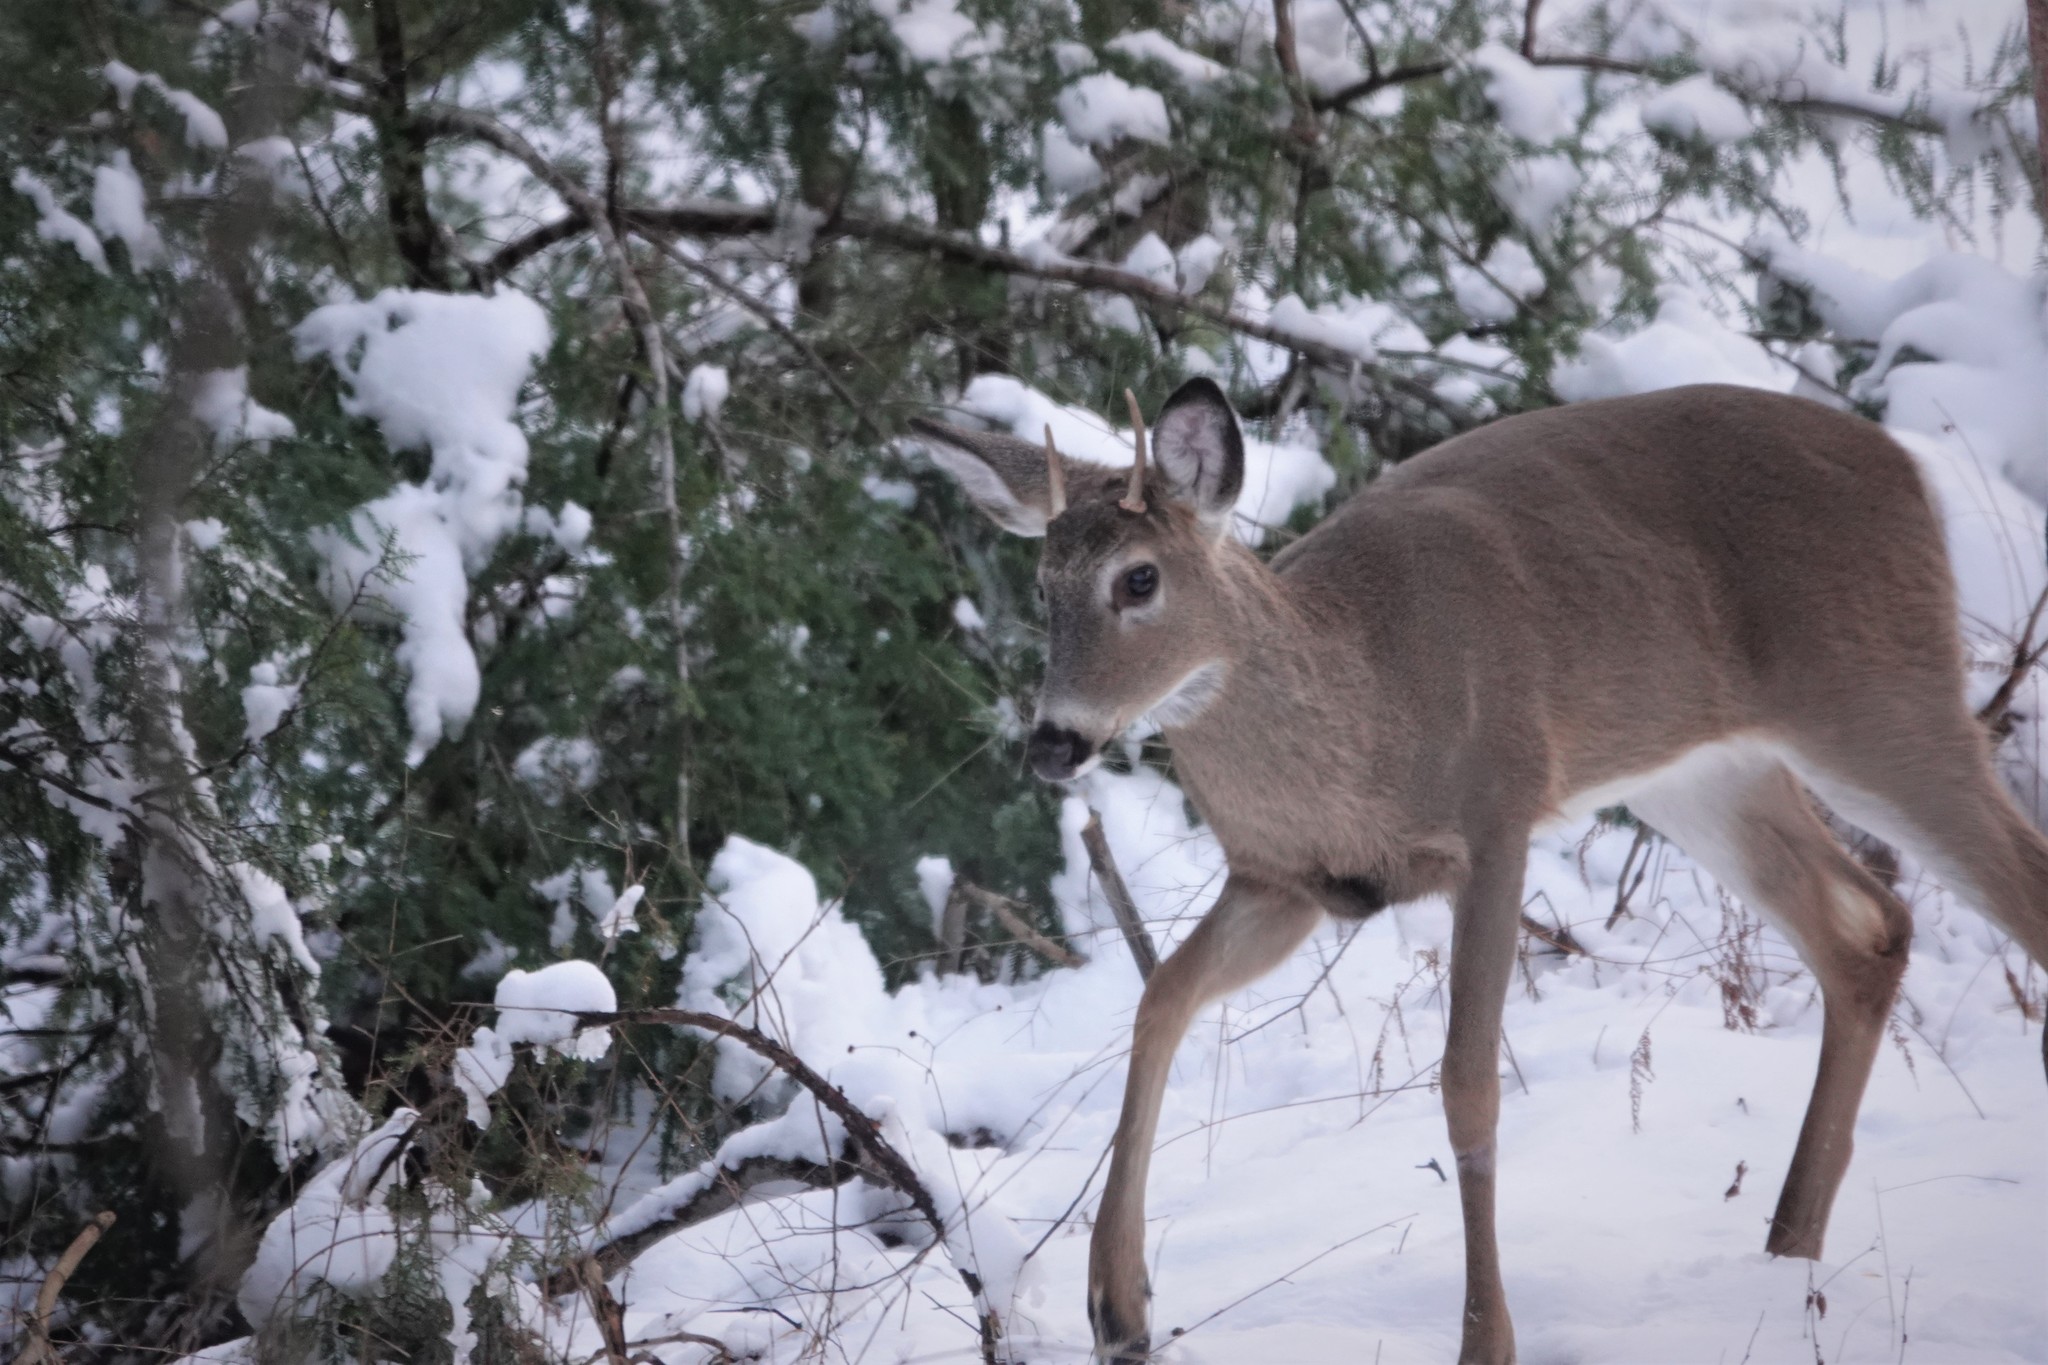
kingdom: Animalia
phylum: Chordata
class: Mammalia
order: Artiodactyla
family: Cervidae
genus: Odocoileus
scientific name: Odocoileus virginianus
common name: White-tailed deer
